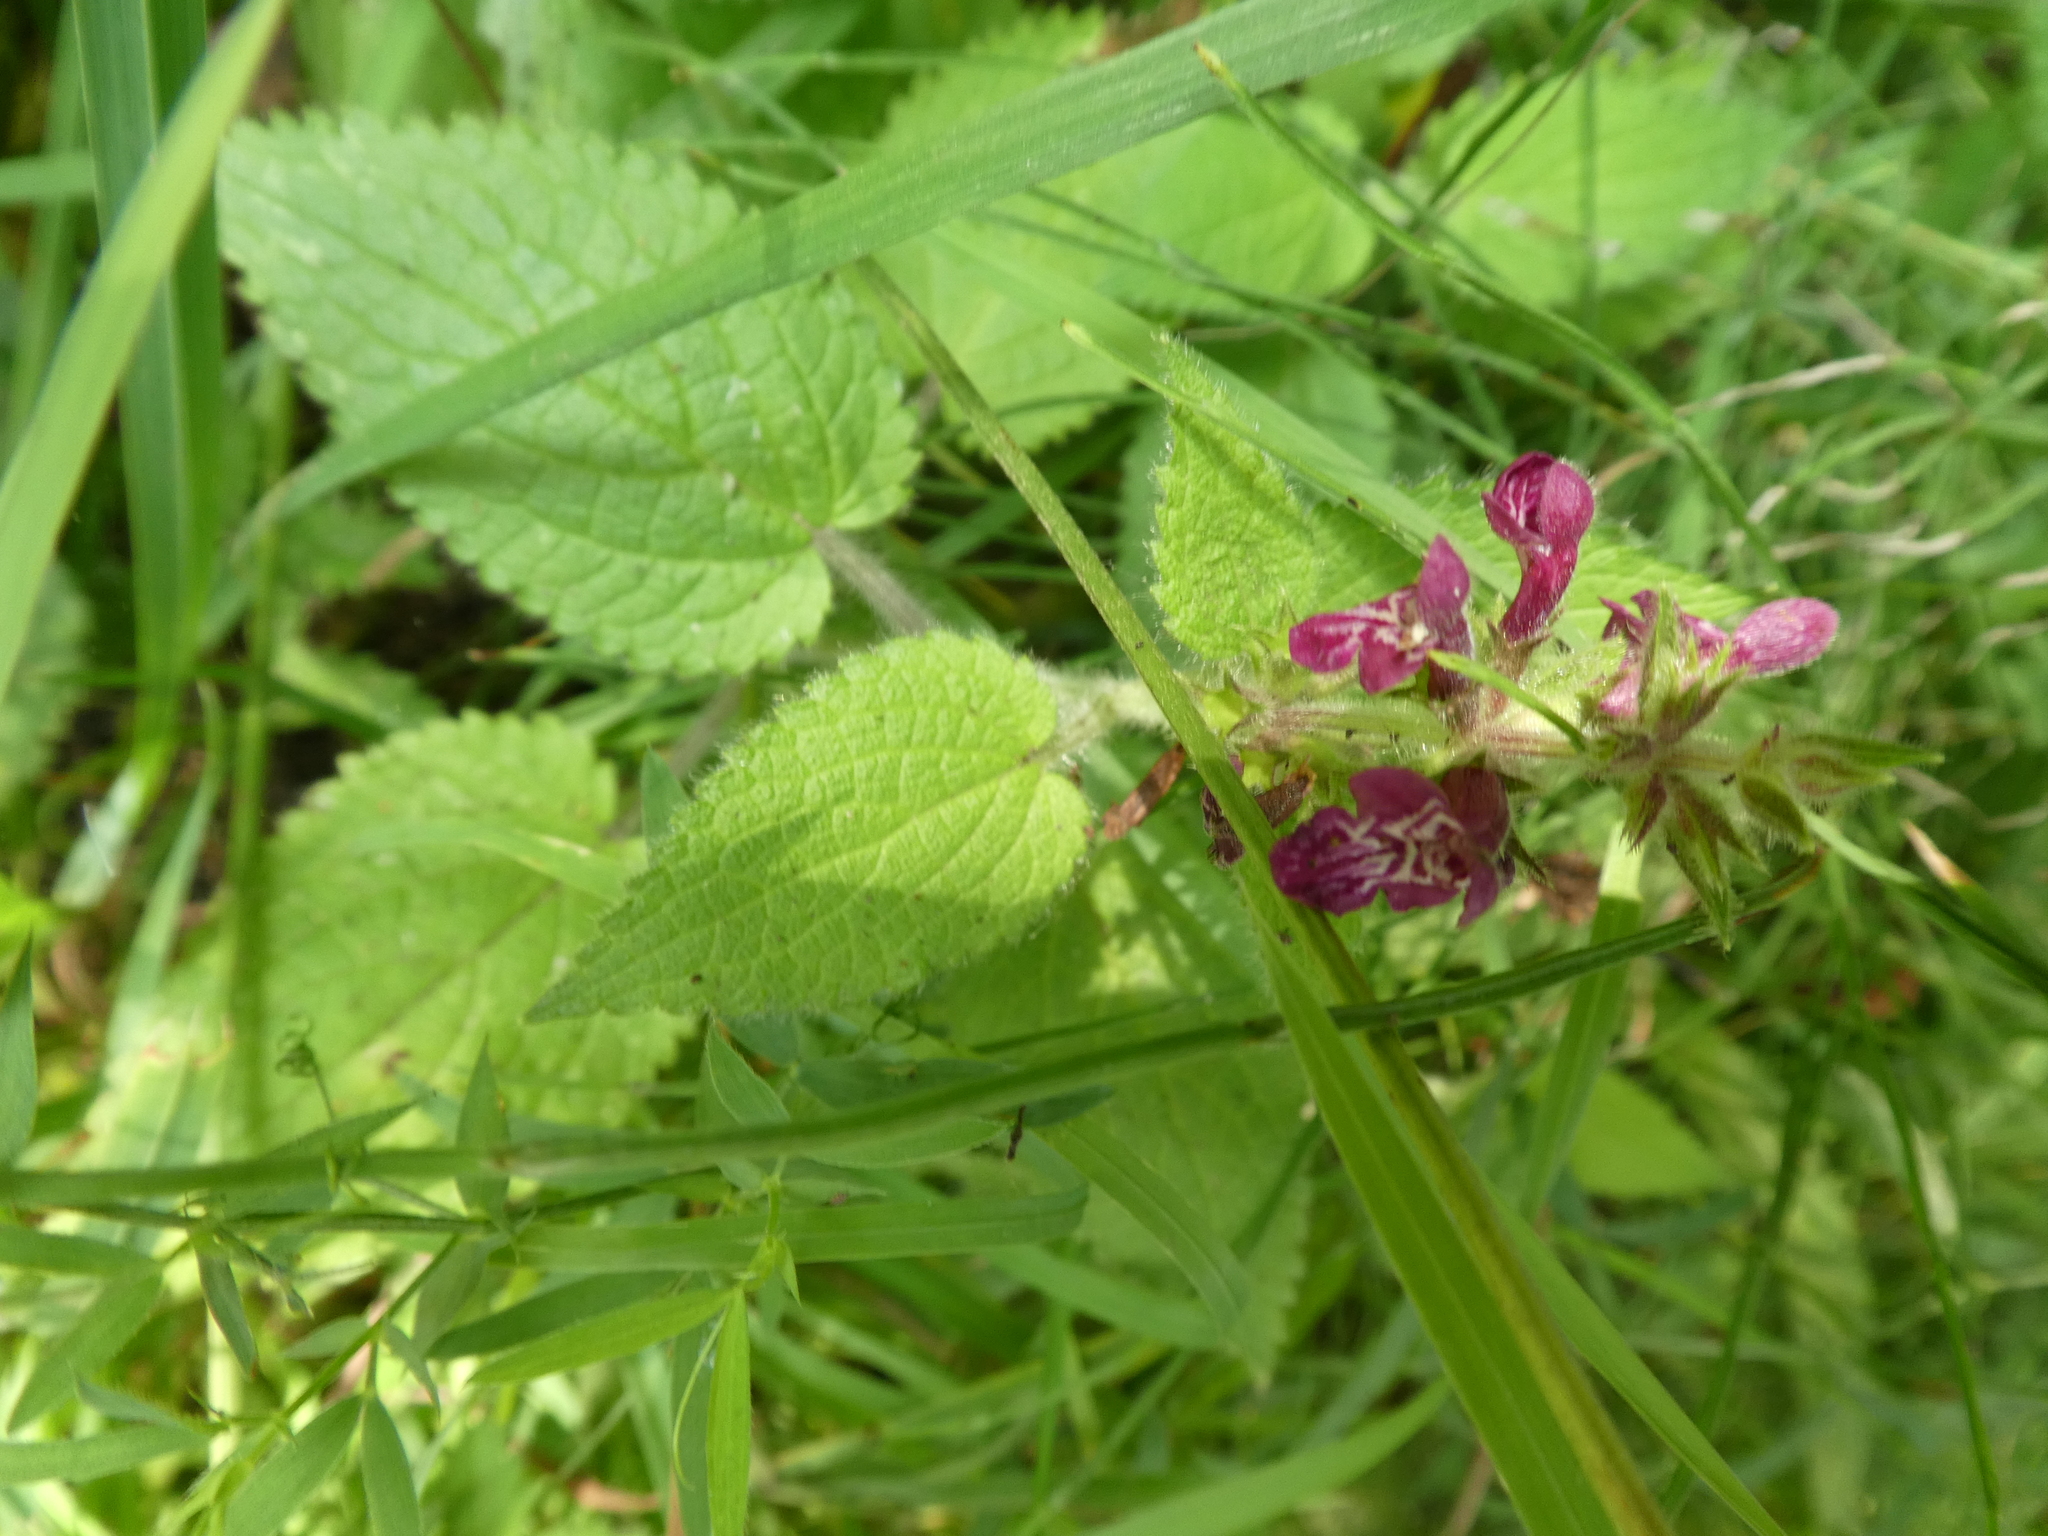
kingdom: Plantae
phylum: Tracheophyta
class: Magnoliopsida
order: Lamiales
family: Lamiaceae
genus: Stachys
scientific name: Stachys sylvatica
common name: Hedge woundwort
